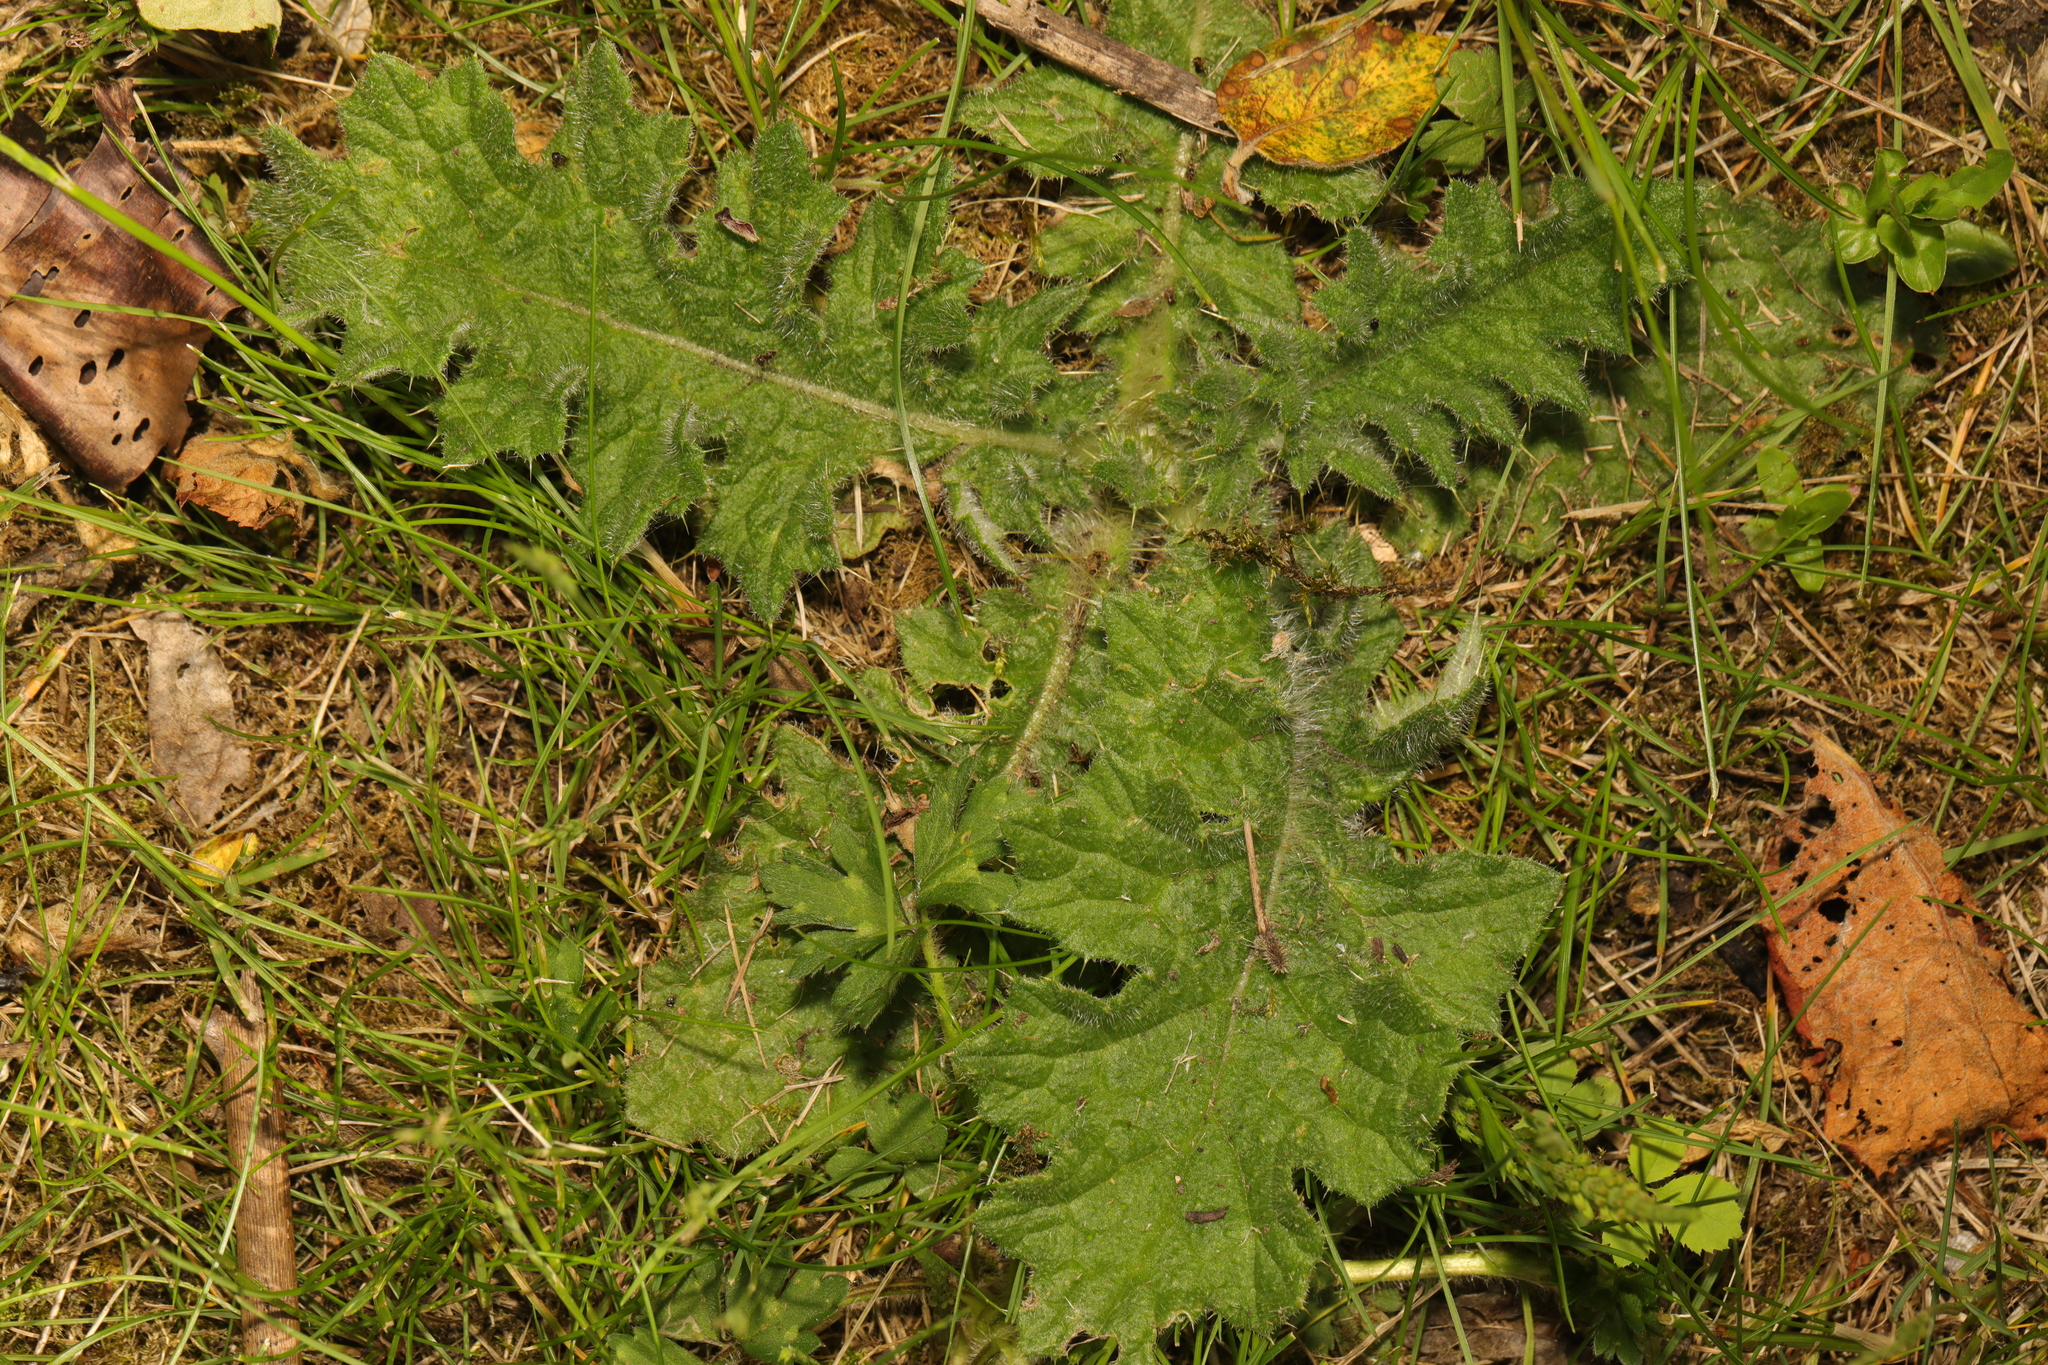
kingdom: Plantae
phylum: Tracheophyta
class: Magnoliopsida
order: Asterales
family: Asteraceae
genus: Cirsium
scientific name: Cirsium vulgare
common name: Bull thistle
